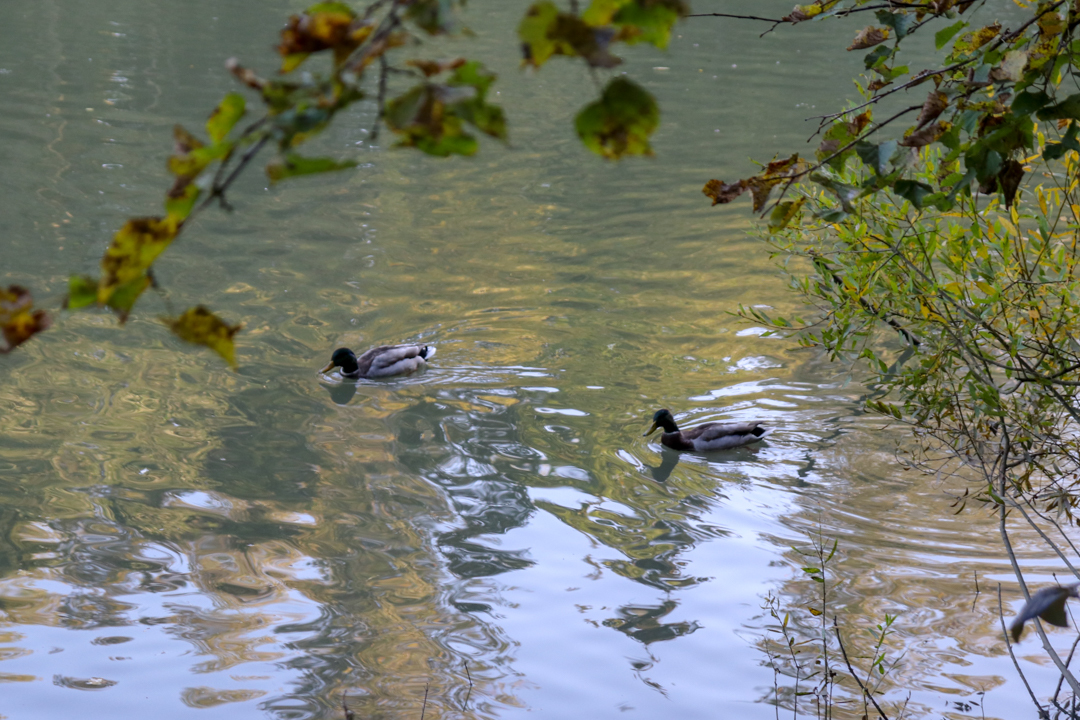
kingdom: Animalia
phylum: Chordata
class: Aves
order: Anseriformes
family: Anatidae
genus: Anas
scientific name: Anas platyrhynchos
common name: Mallard
